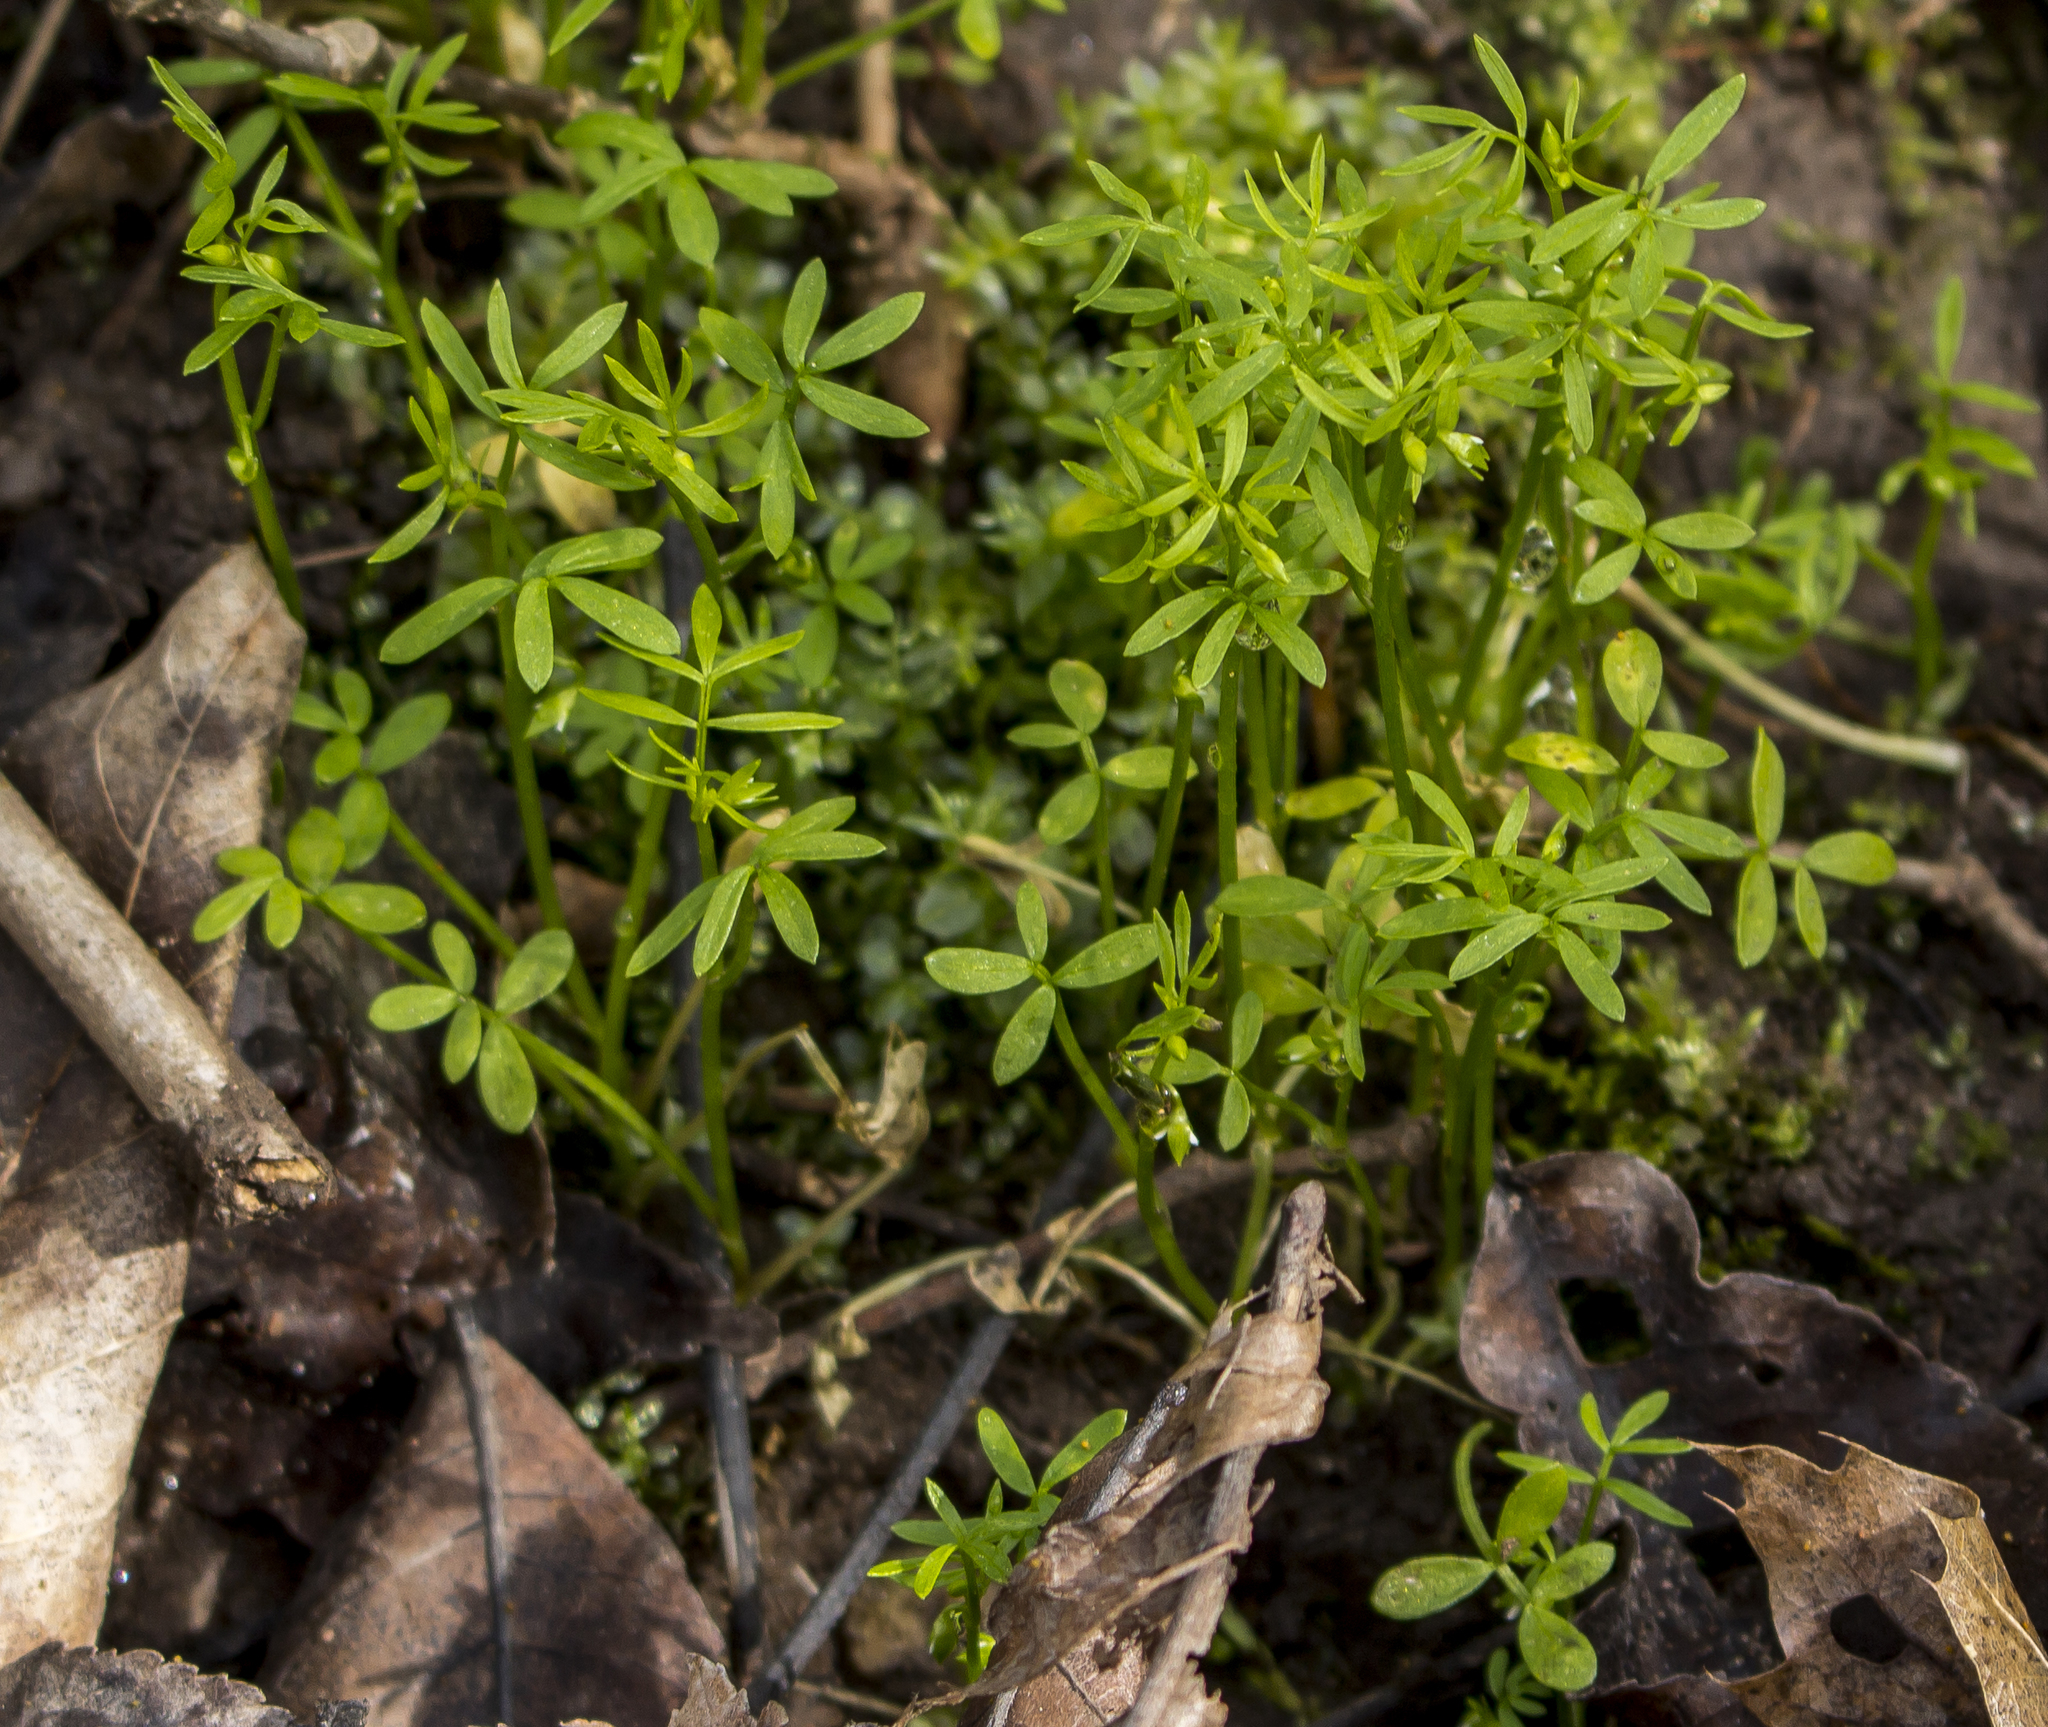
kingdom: Plantae
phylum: Tracheophyta
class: Magnoliopsida
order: Brassicales
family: Limnanthaceae
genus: Floerkea
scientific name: Floerkea proserpinacoides
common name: False mermaid
